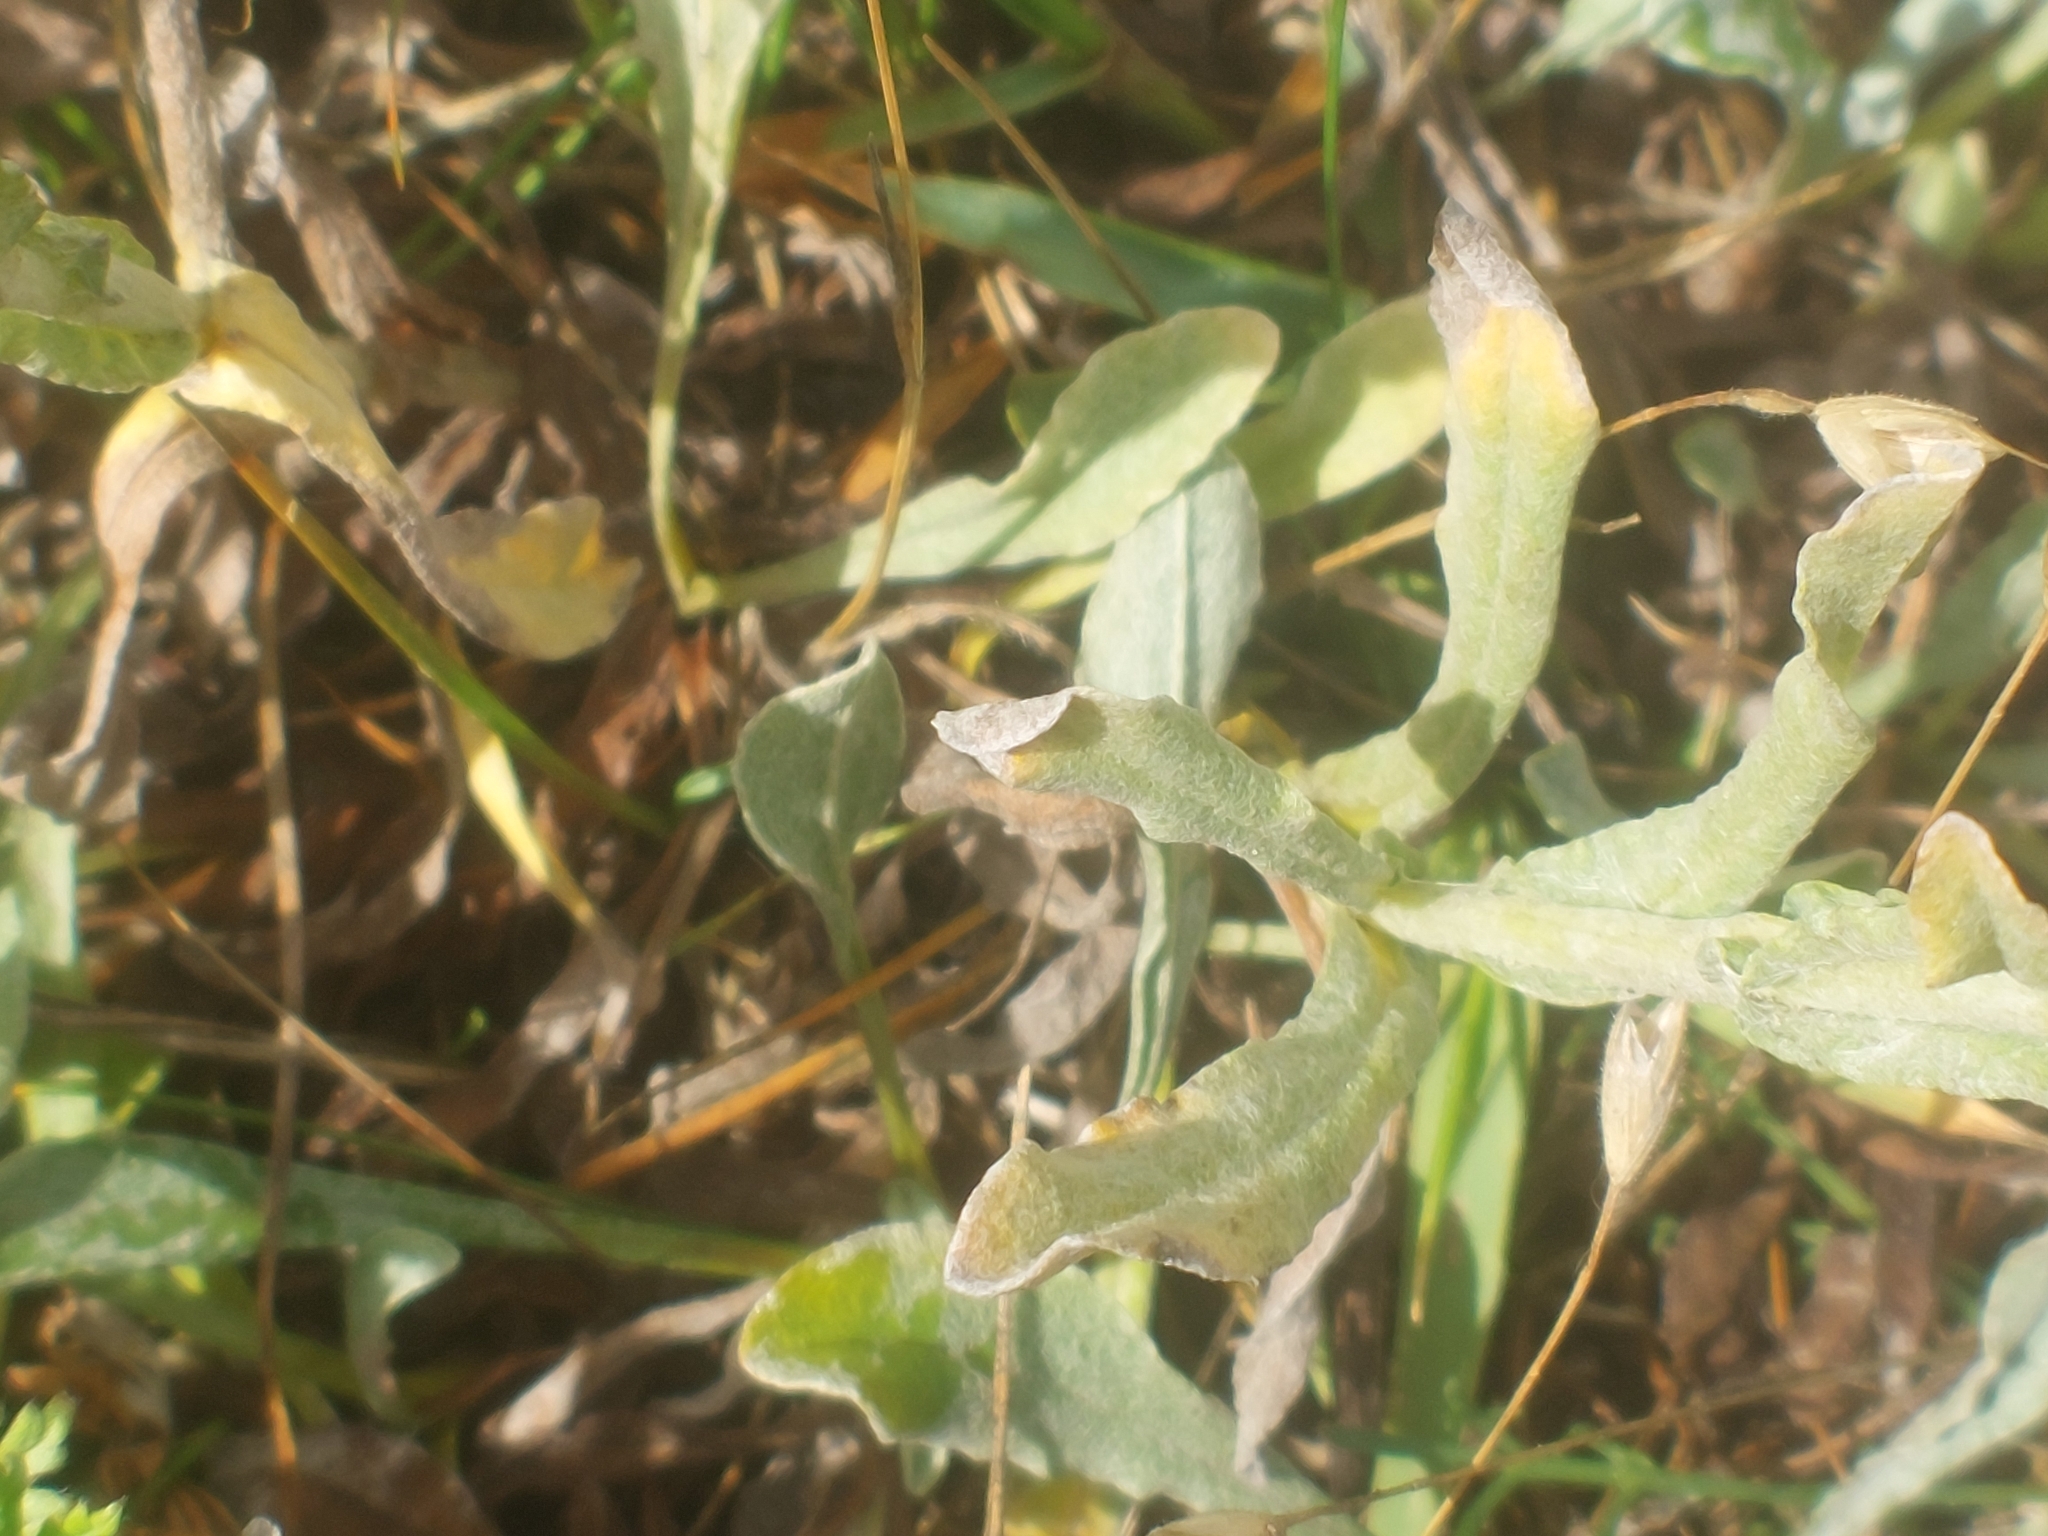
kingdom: Plantae
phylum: Tracheophyta
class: Magnoliopsida
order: Asterales
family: Asteraceae
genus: Helichrysum
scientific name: Helichrysum arenarium
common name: Strawflower
